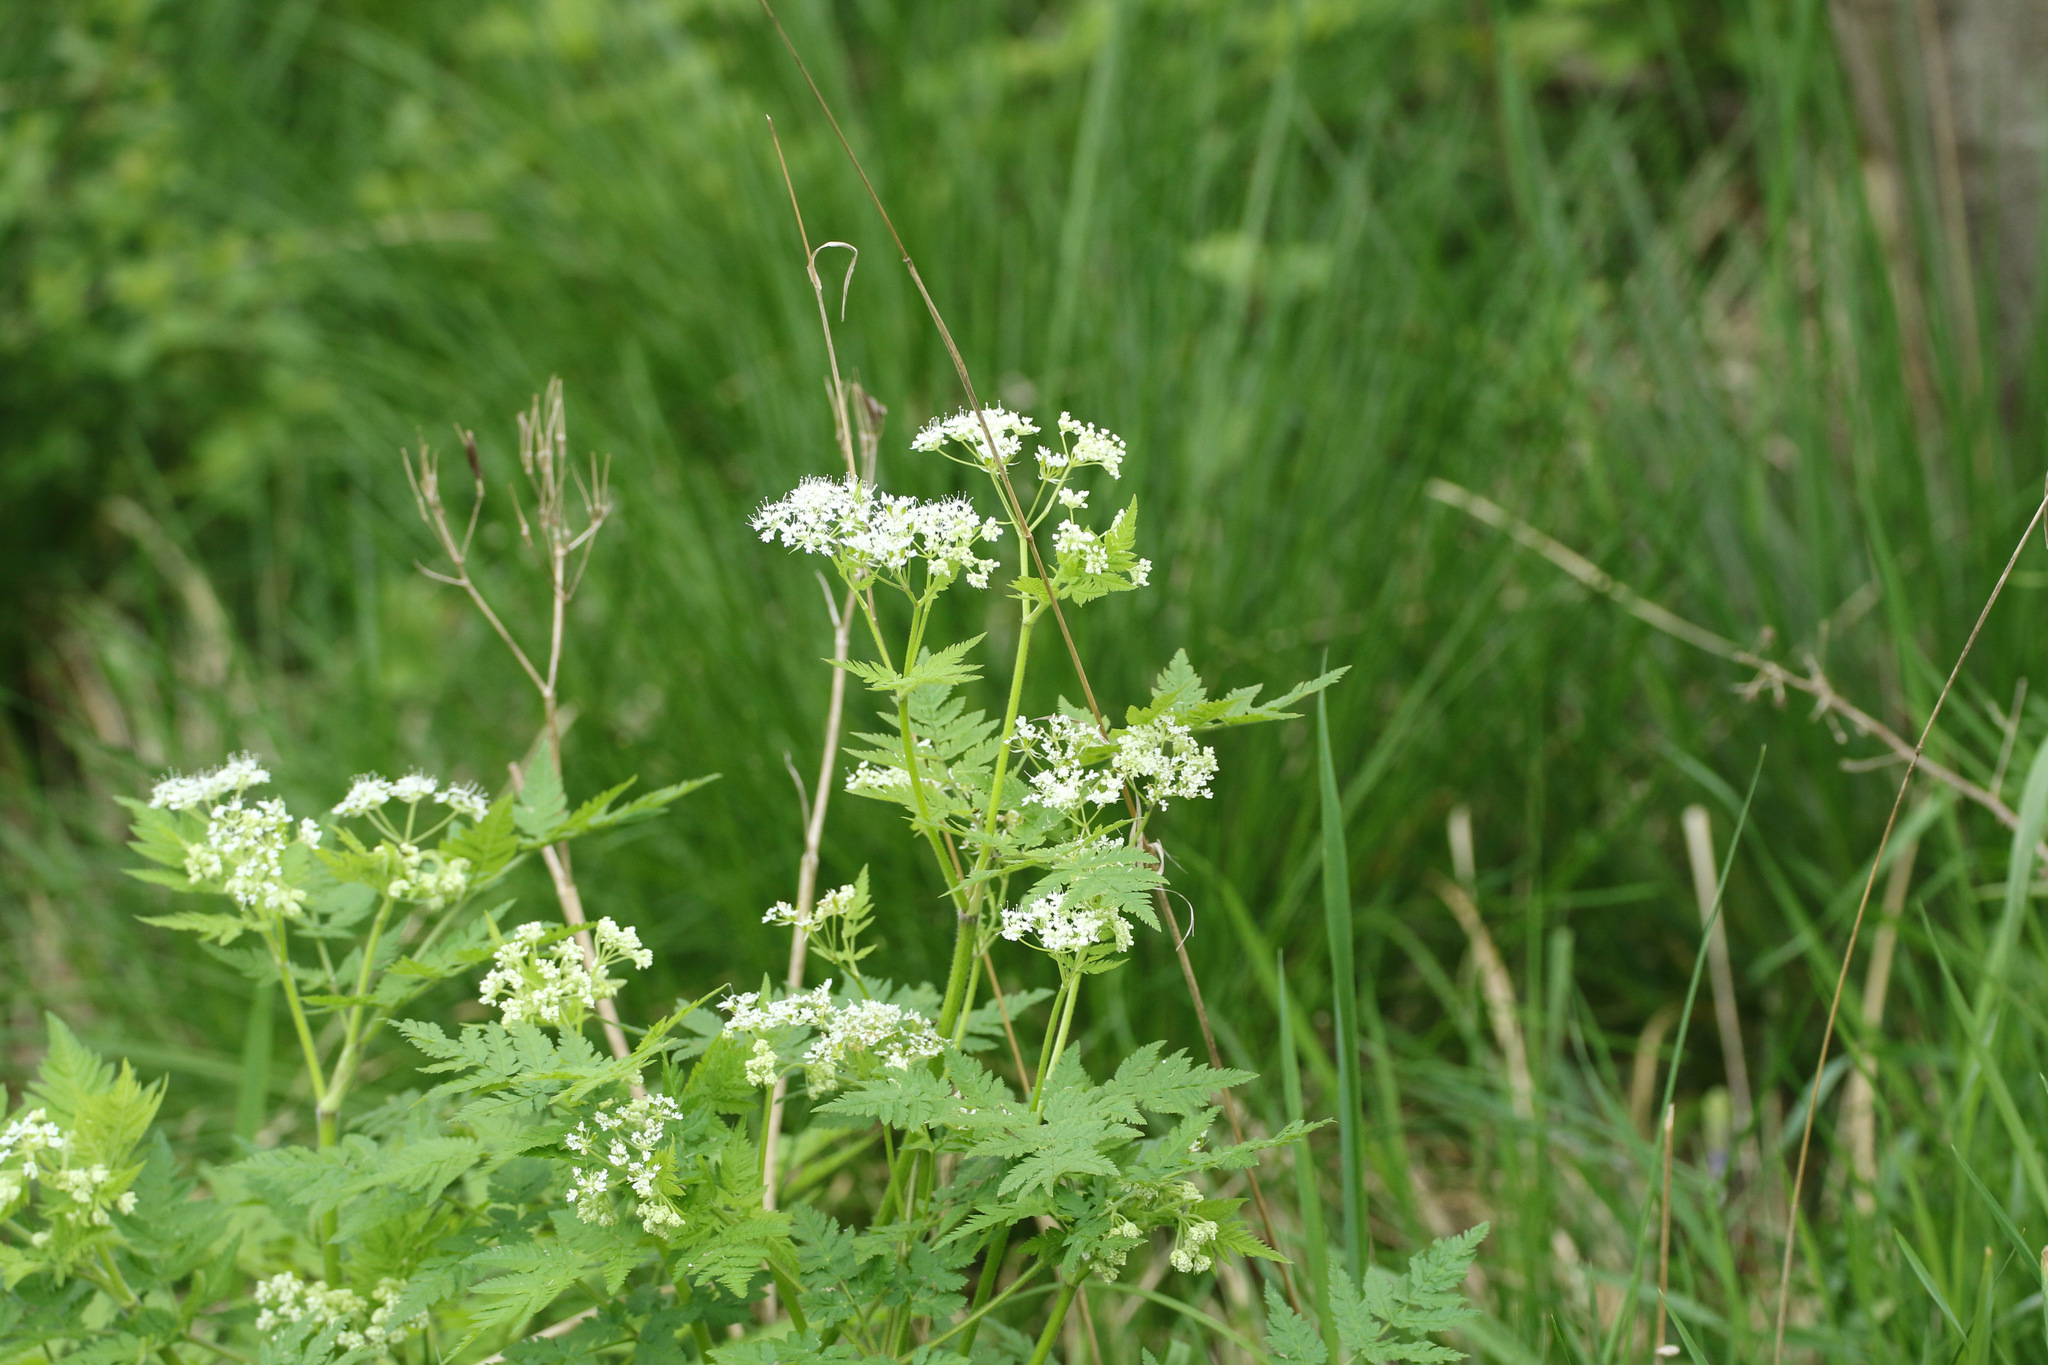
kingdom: Plantae
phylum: Tracheophyta
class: Magnoliopsida
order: Apiales
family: Apiaceae
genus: Anthriscus
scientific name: Anthriscus sylvestris
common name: Cow parsley
